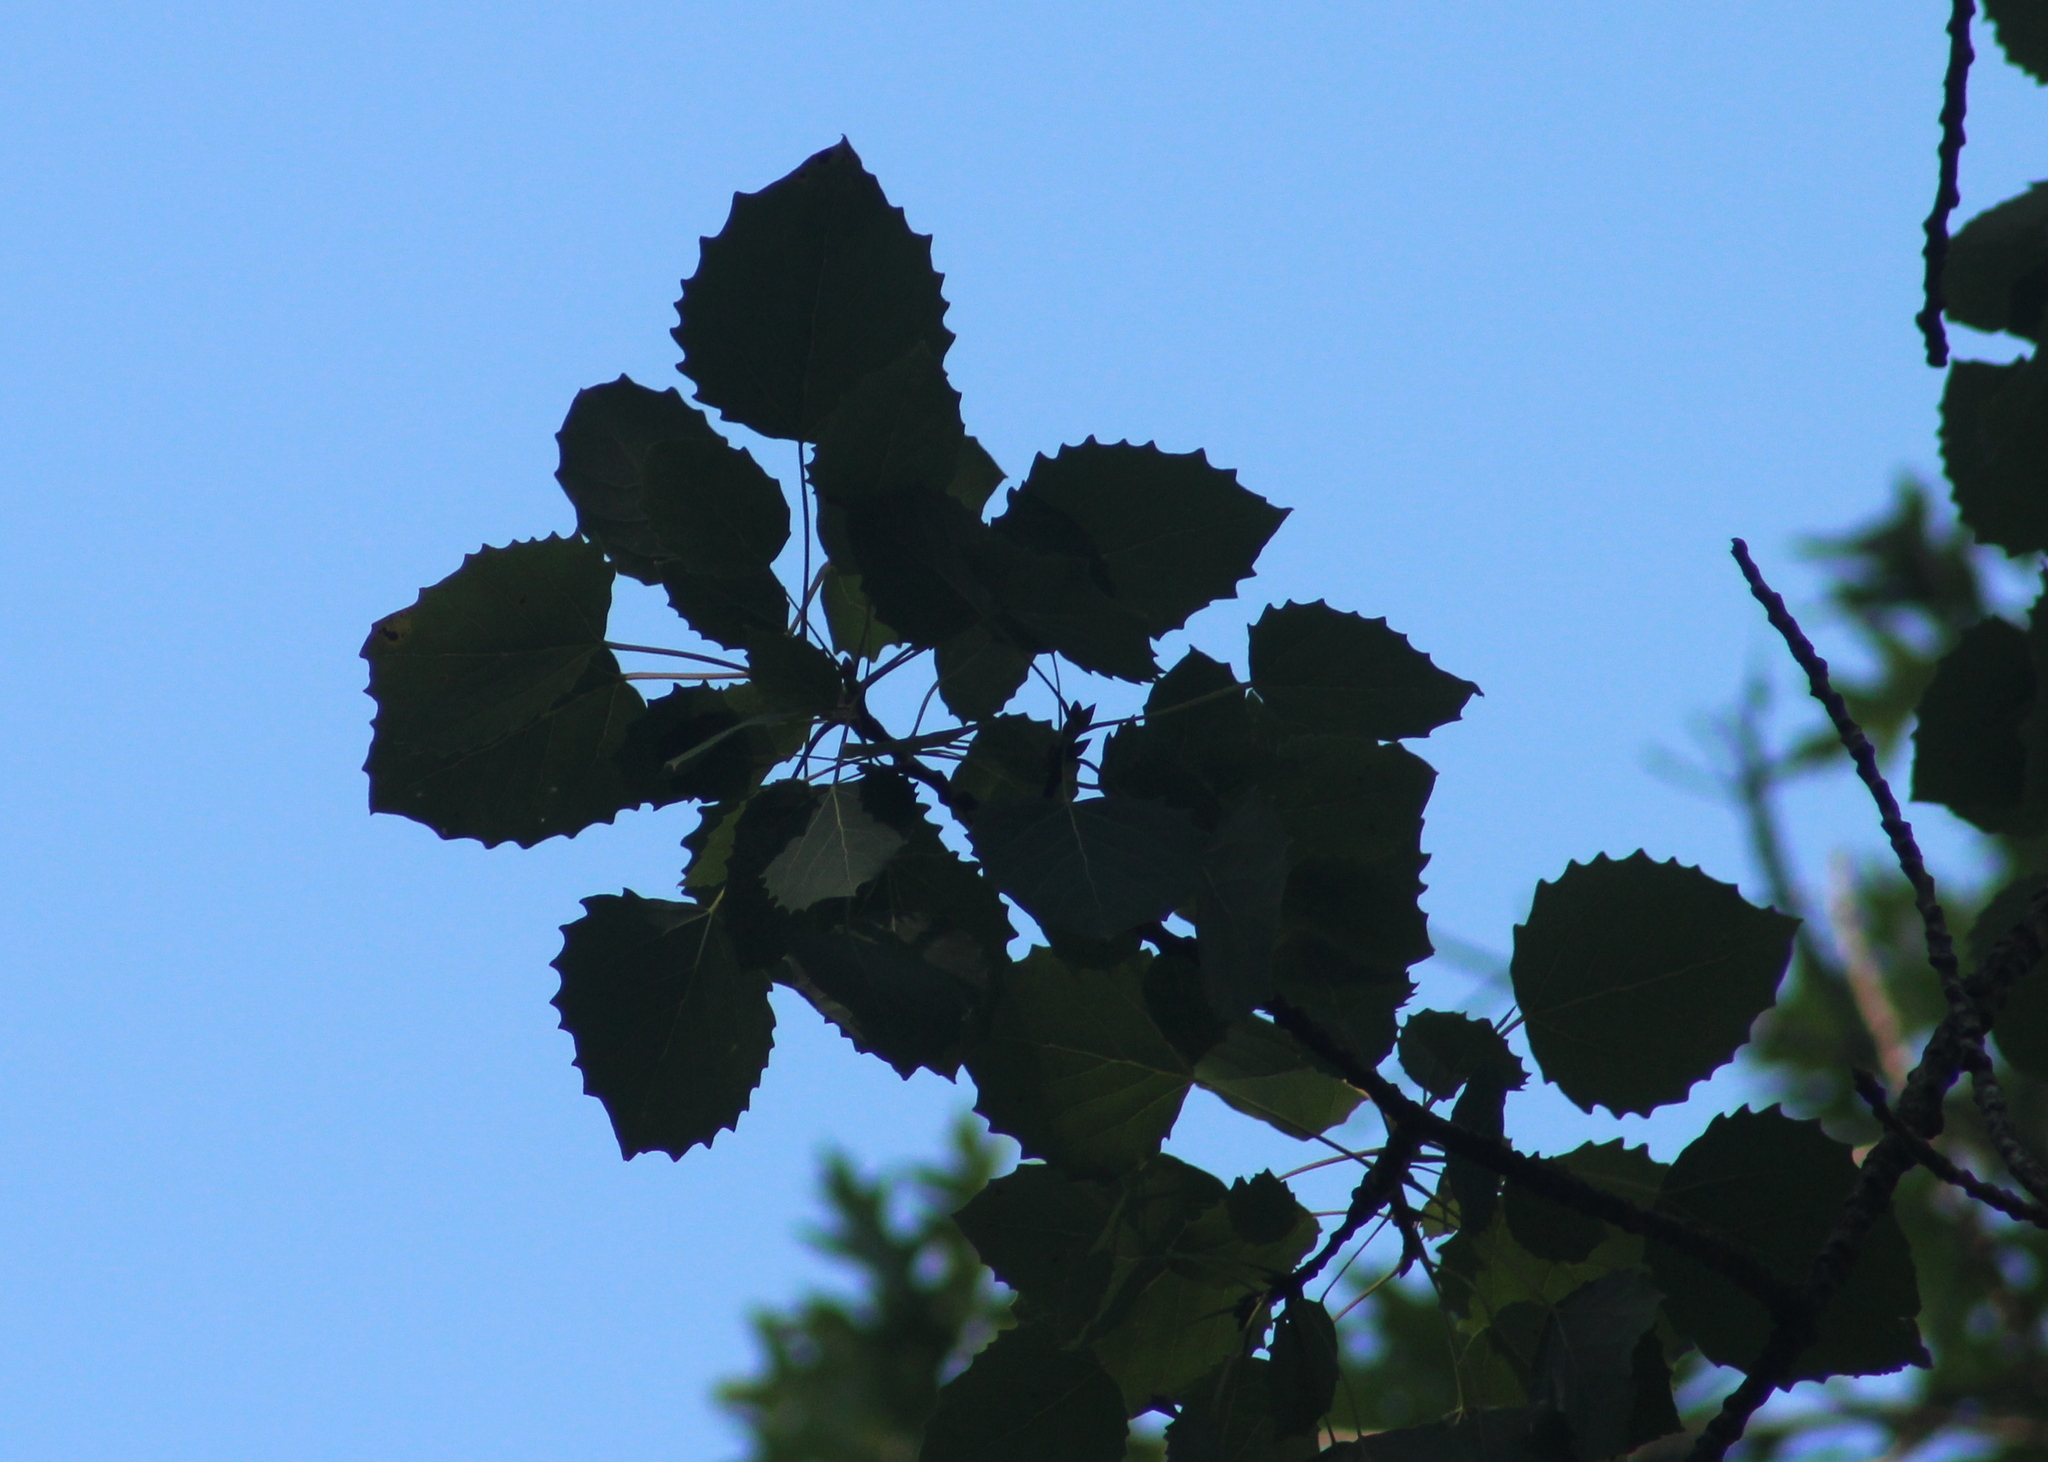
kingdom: Plantae
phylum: Tracheophyta
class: Magnoliopsida
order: Malpighiales
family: Salicaceae
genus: Populus
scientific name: Populus grandidentata
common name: Bigtooth aspen
